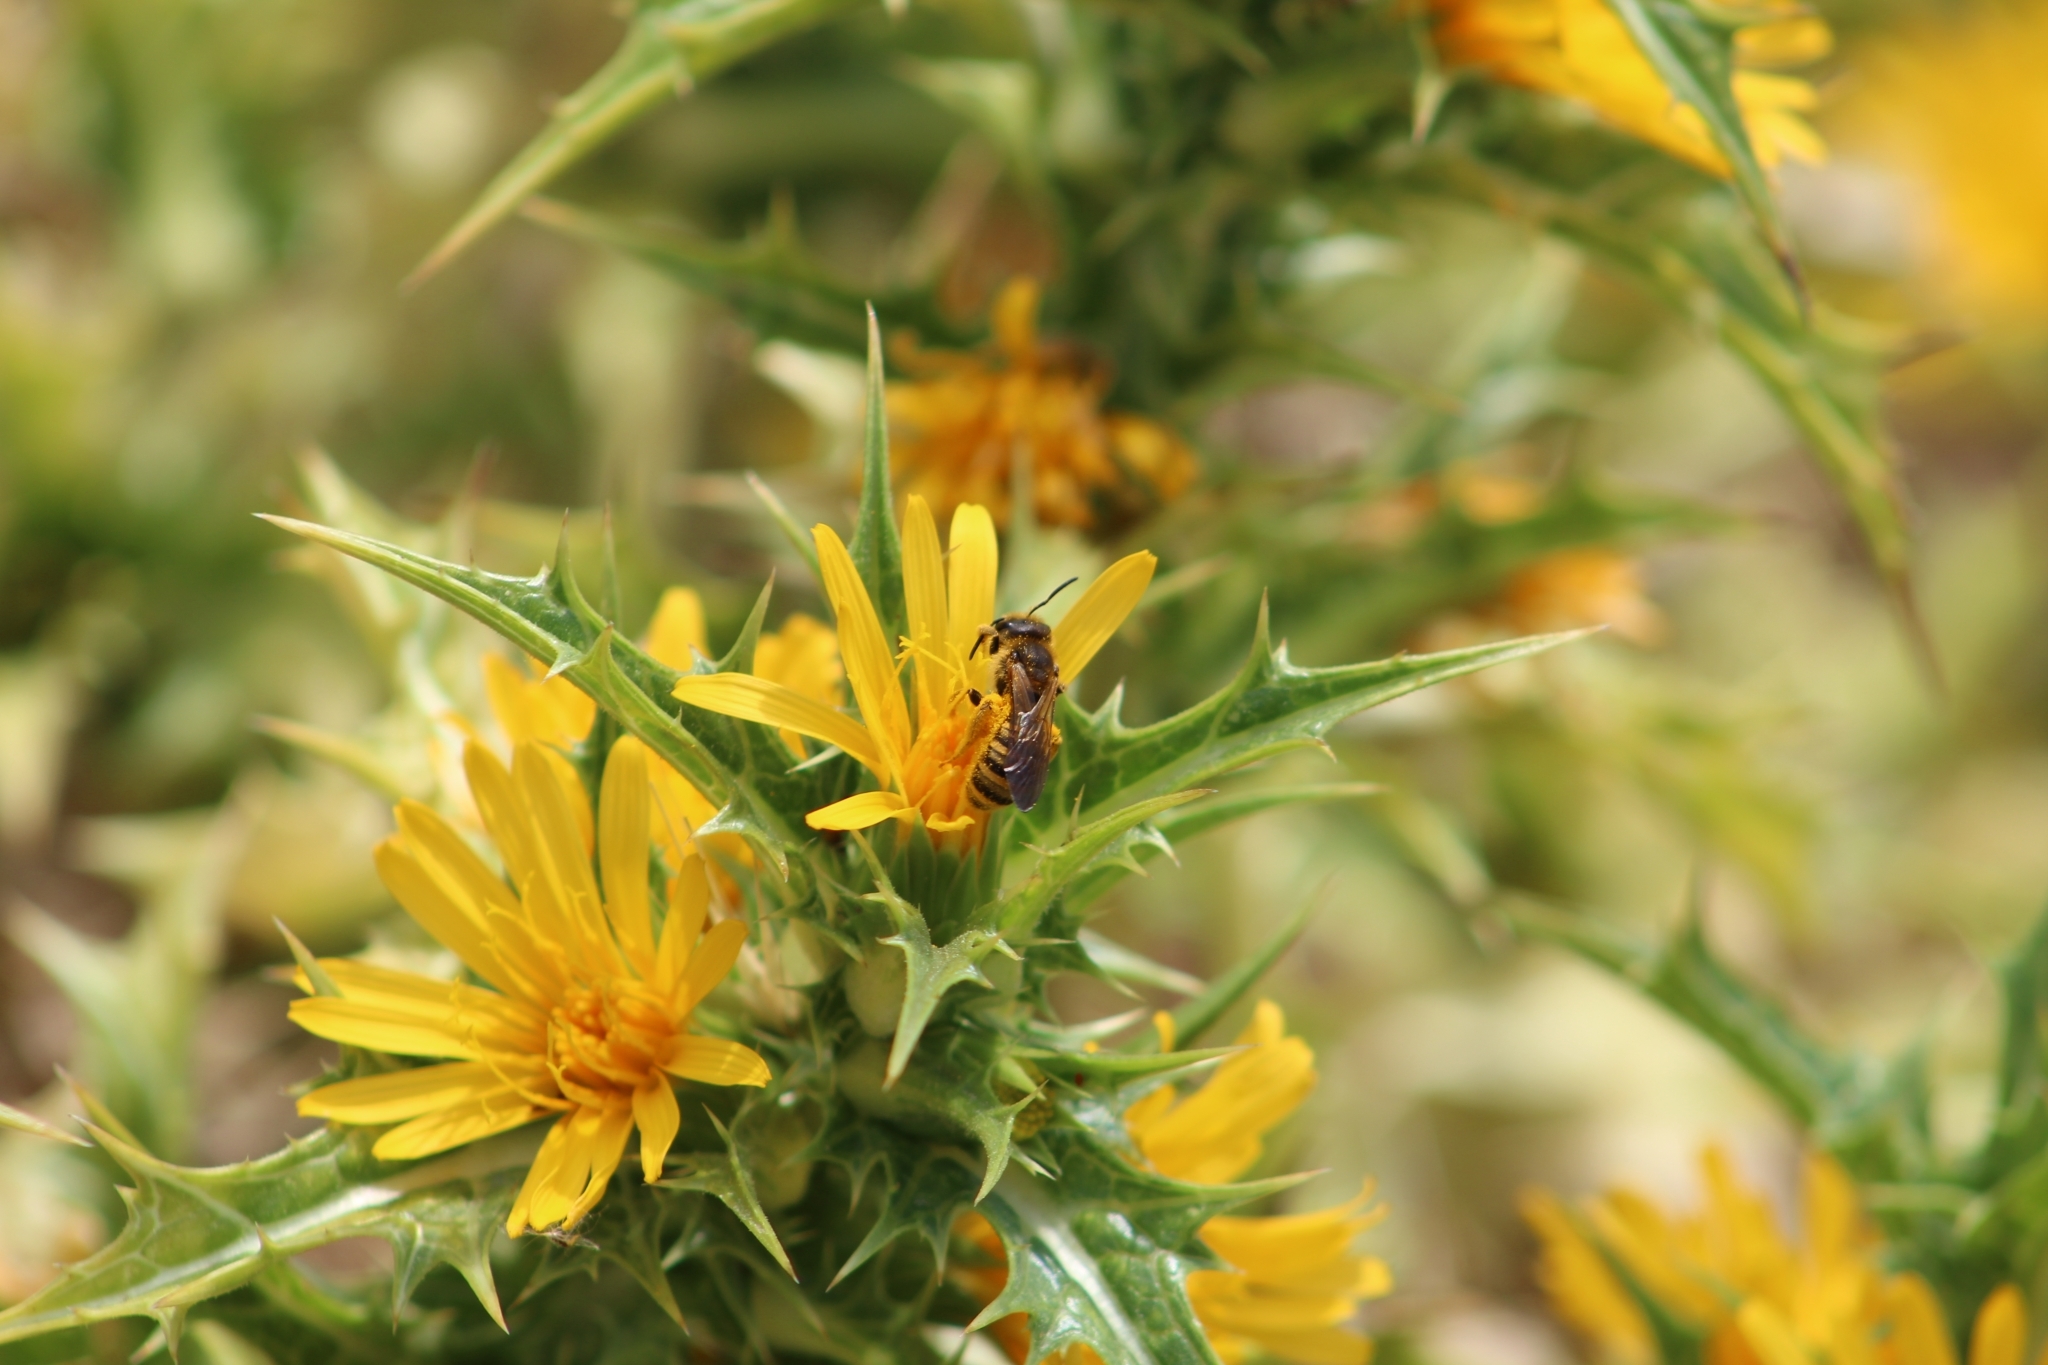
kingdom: Animalia
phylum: Arthropoda
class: Insecta
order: Hymenoptera
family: Halictidae
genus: Halictus
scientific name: Halictus scabiosae
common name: Great banded furrow bee
